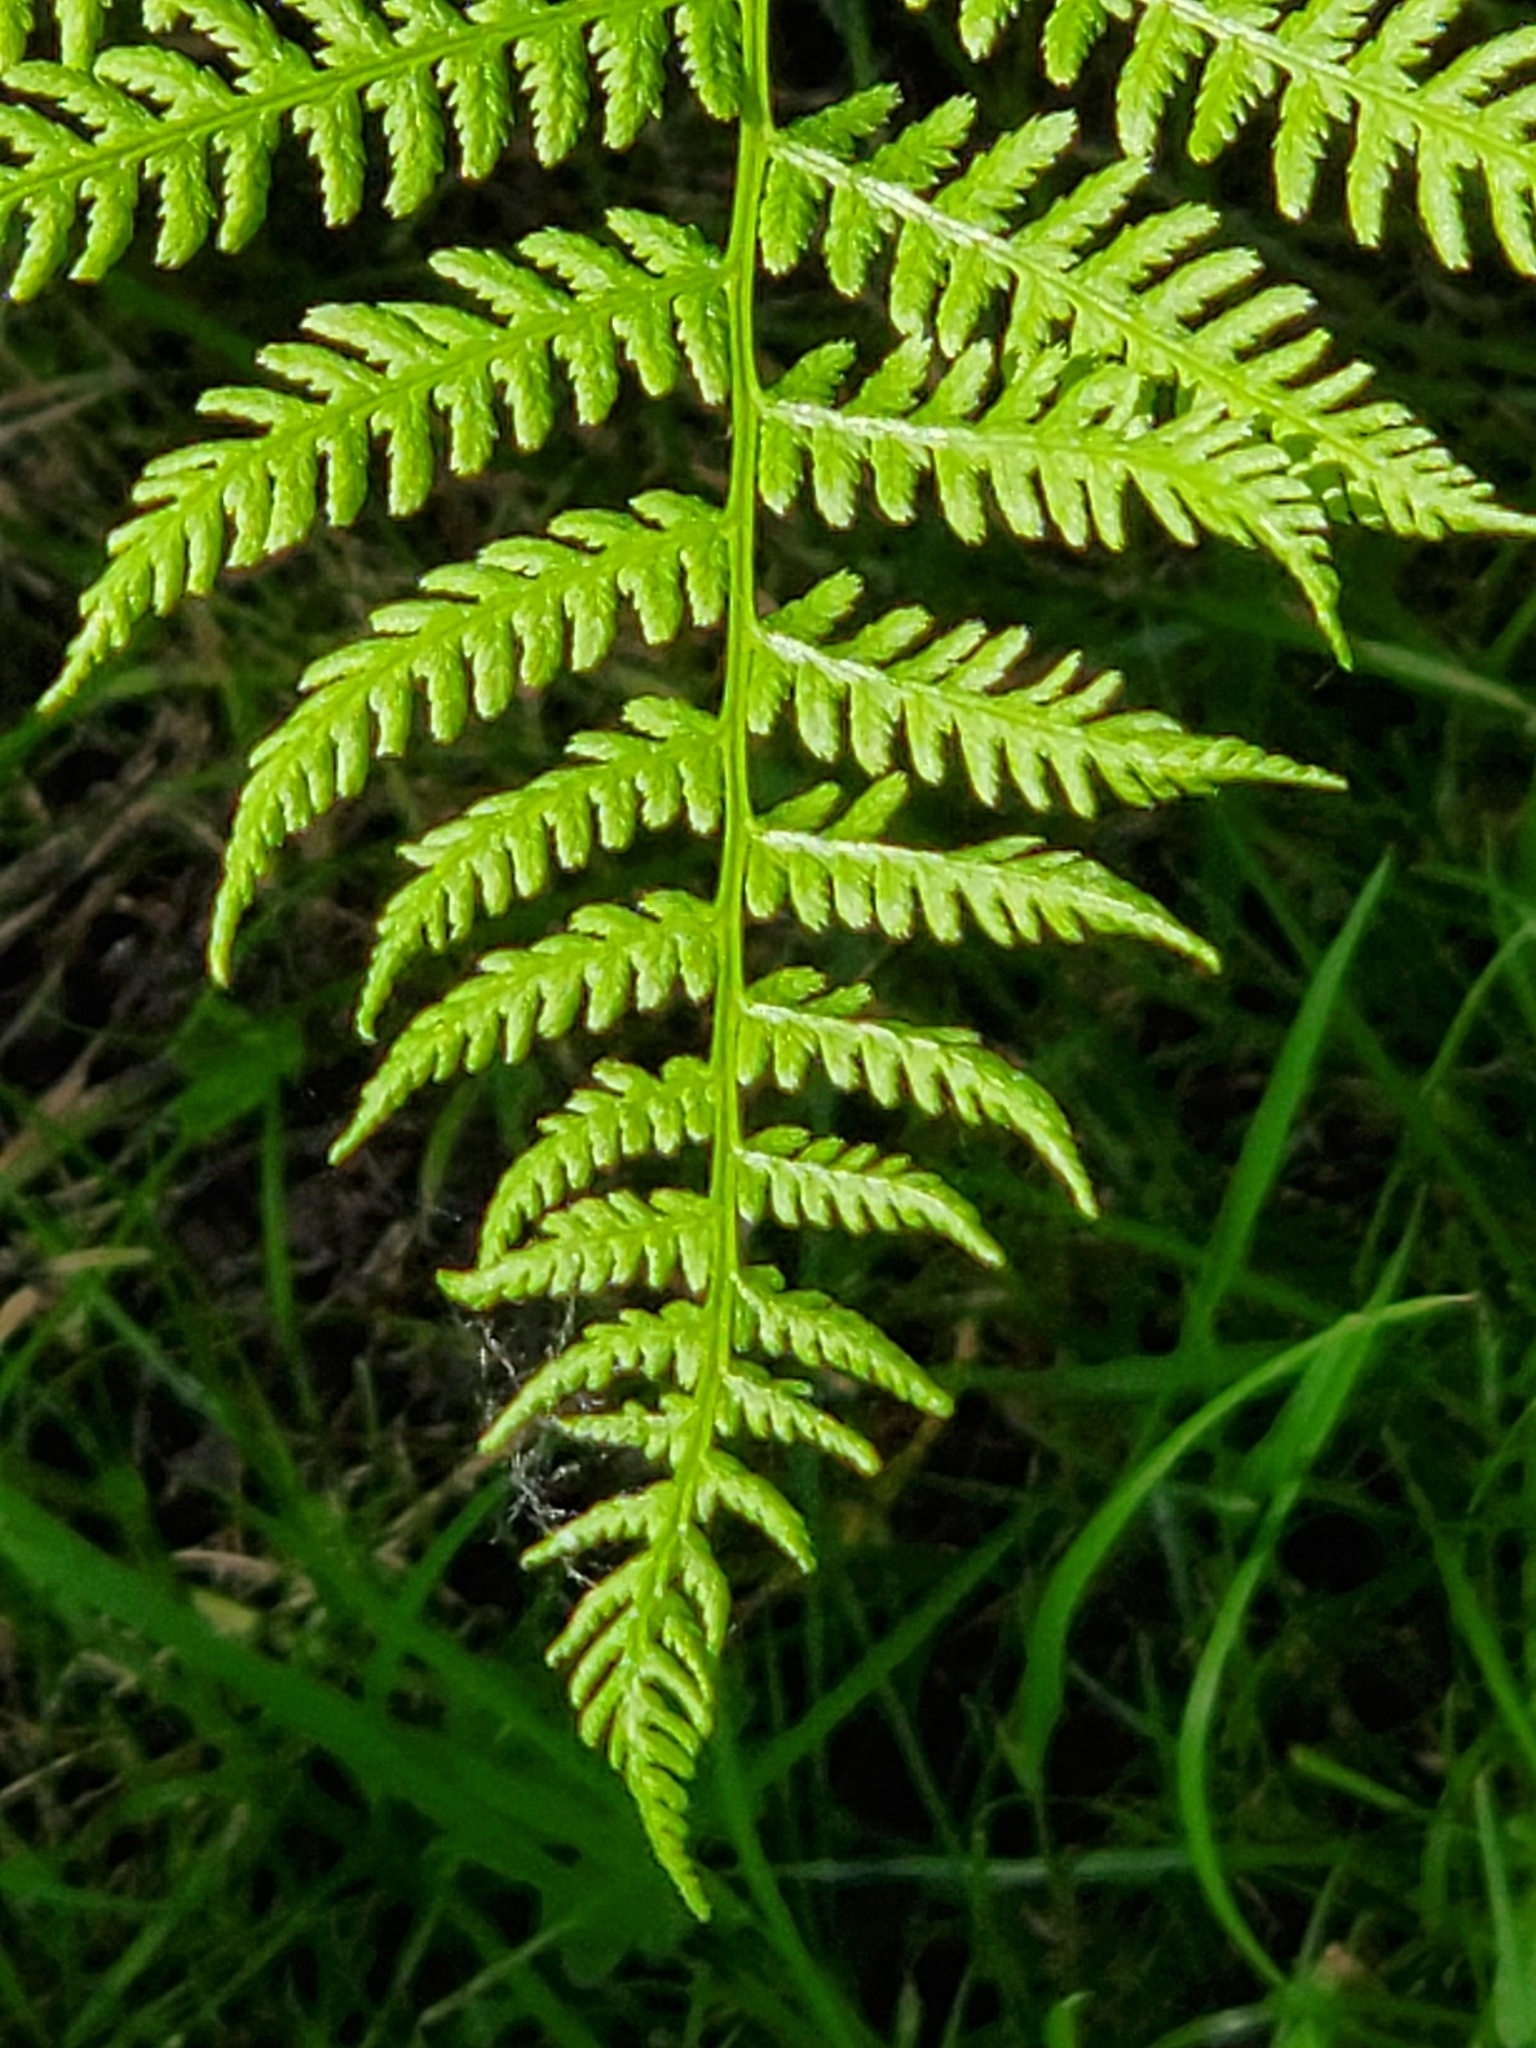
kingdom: Plantae
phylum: Tracheophyta
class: Polypodiopsida
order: Polypodiales
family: Athyriaceae
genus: Athyrium
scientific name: Athyrium filix-femina
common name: Lady fern
